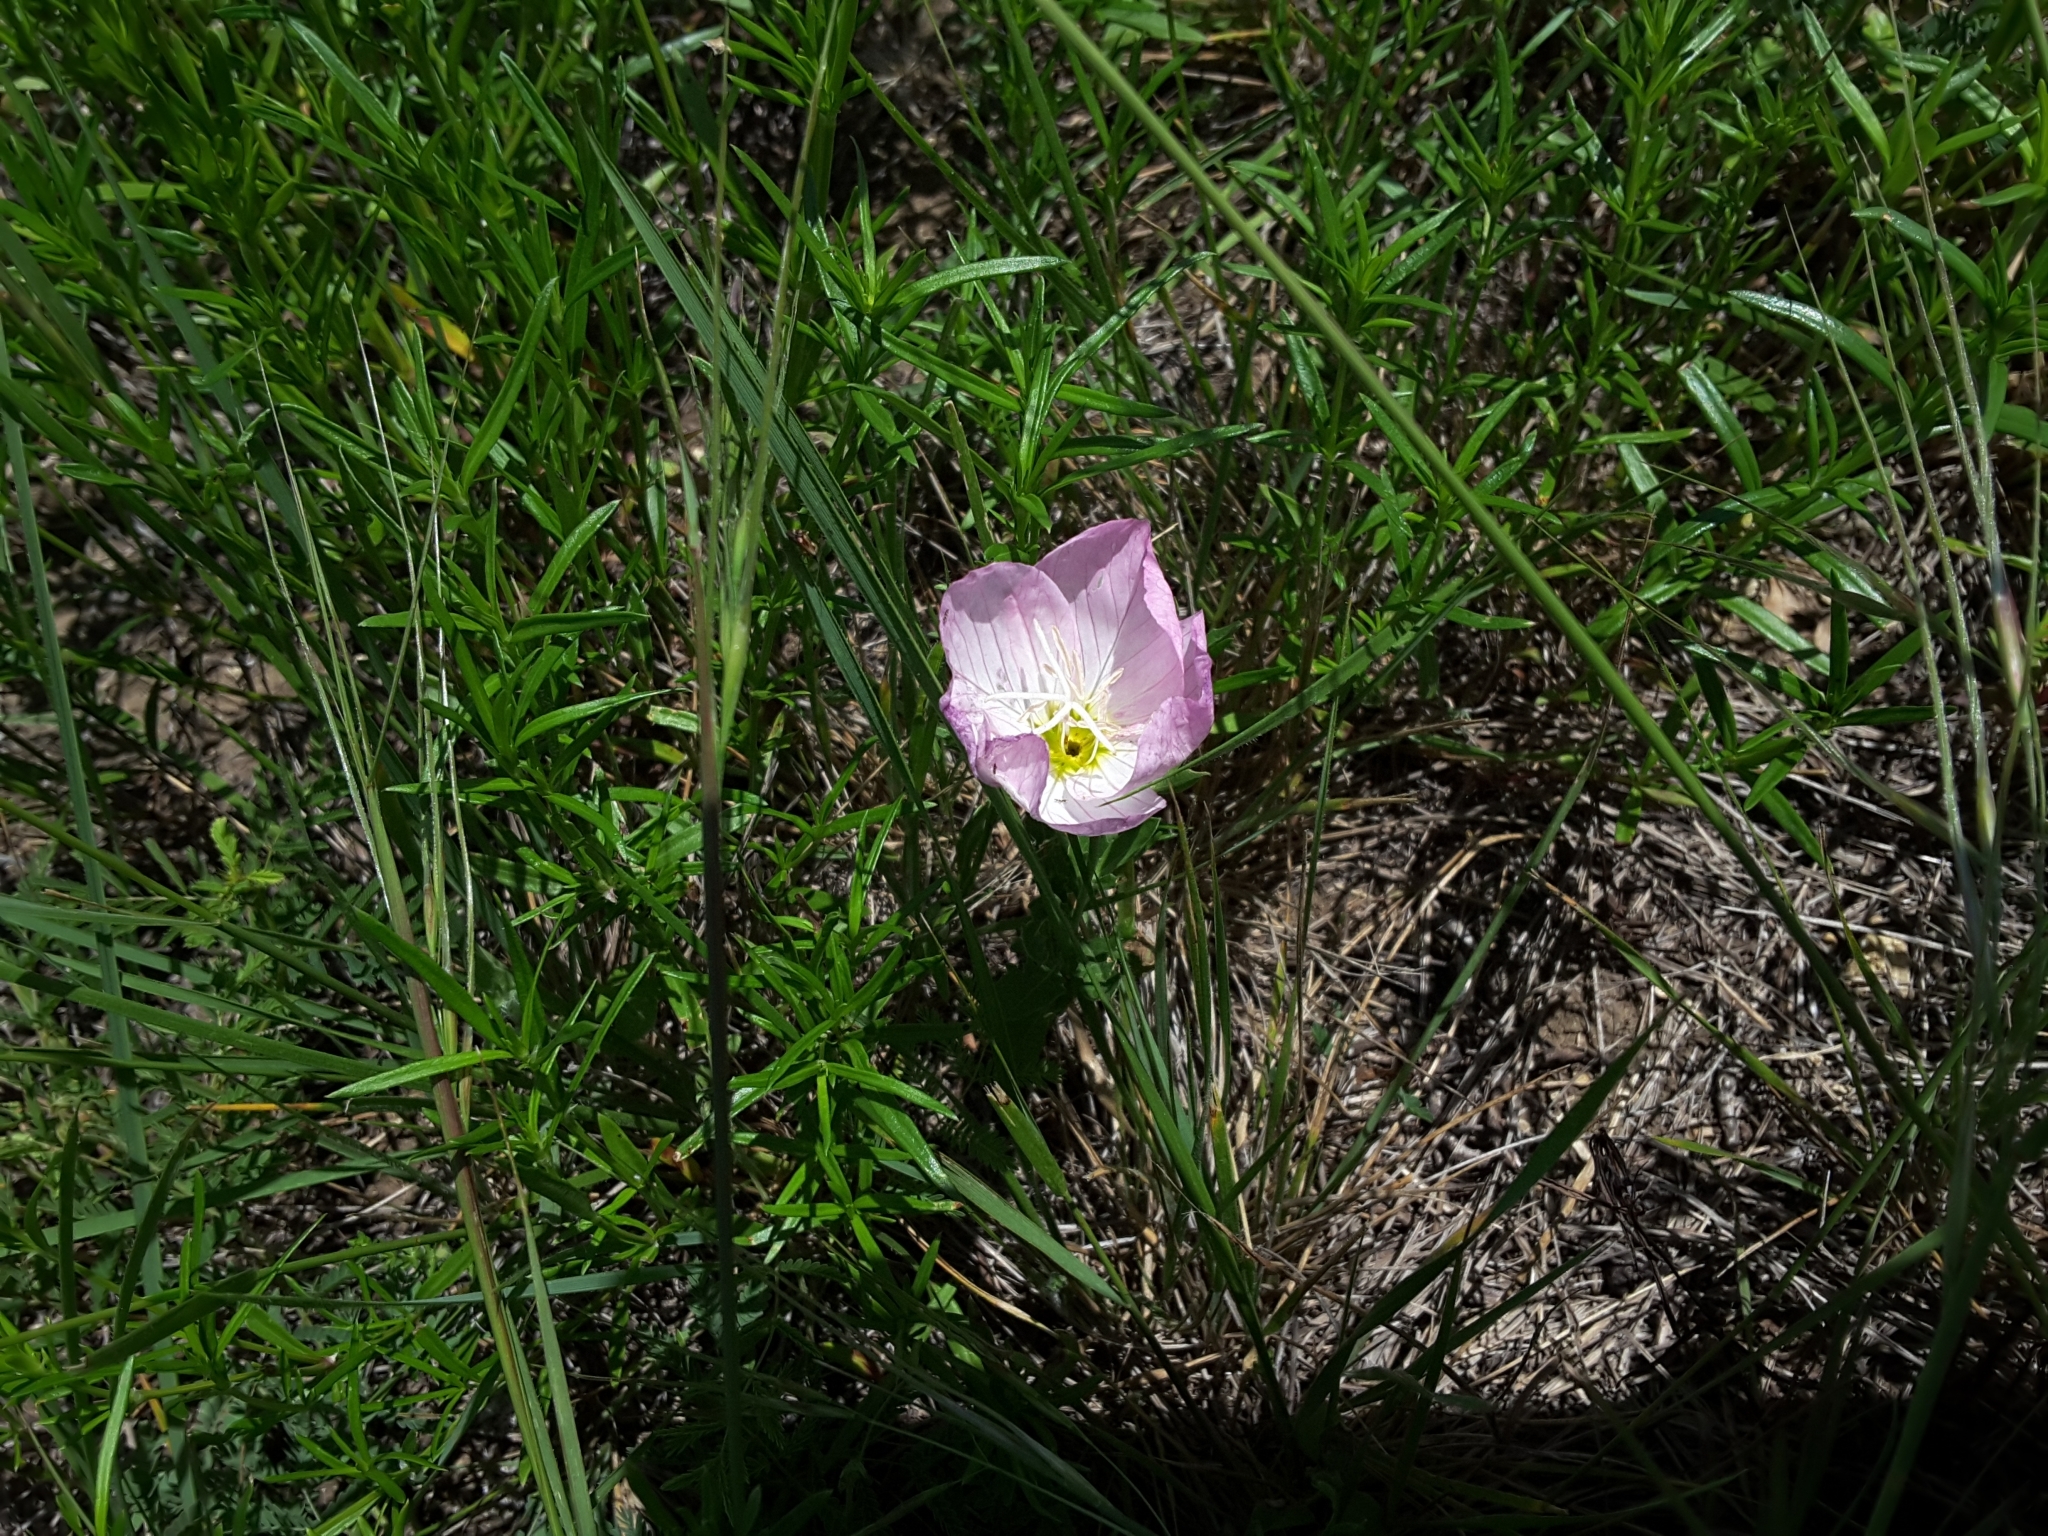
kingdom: Plantae
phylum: Tracheophyta
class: Magnoliopsida
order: Myrtales
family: Onagraceae
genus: Oenothera
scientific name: Oenothera speciosa
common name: White evening-primrose
